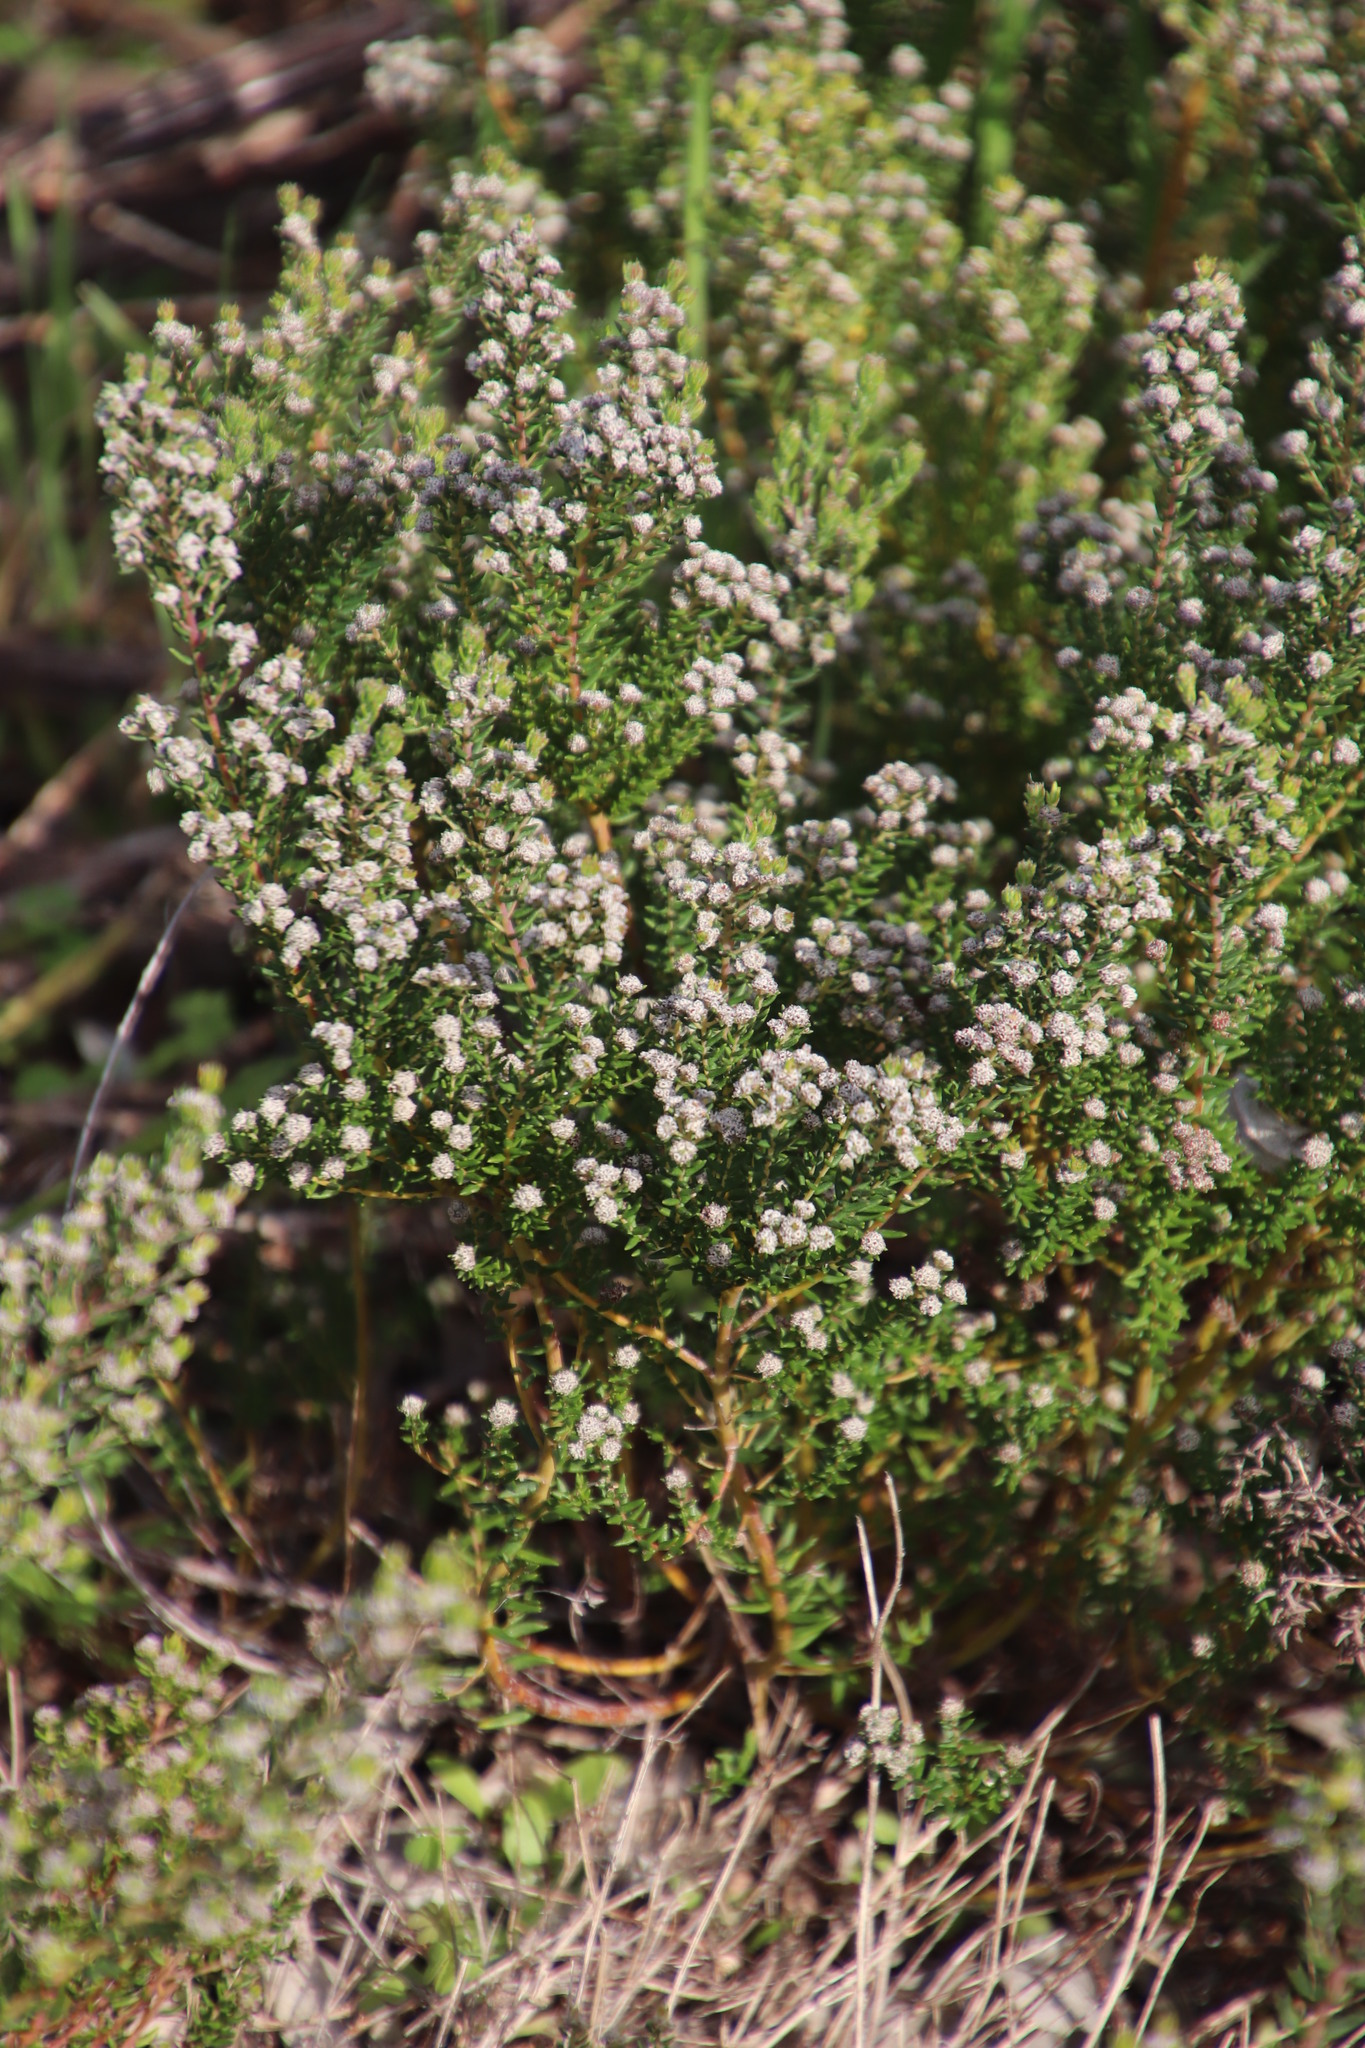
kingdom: Plantae
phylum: Tracheophyta
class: Magnoliopsida
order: Rosales
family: Rhamnaceae
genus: Phylica
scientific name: Phylica ericoides
